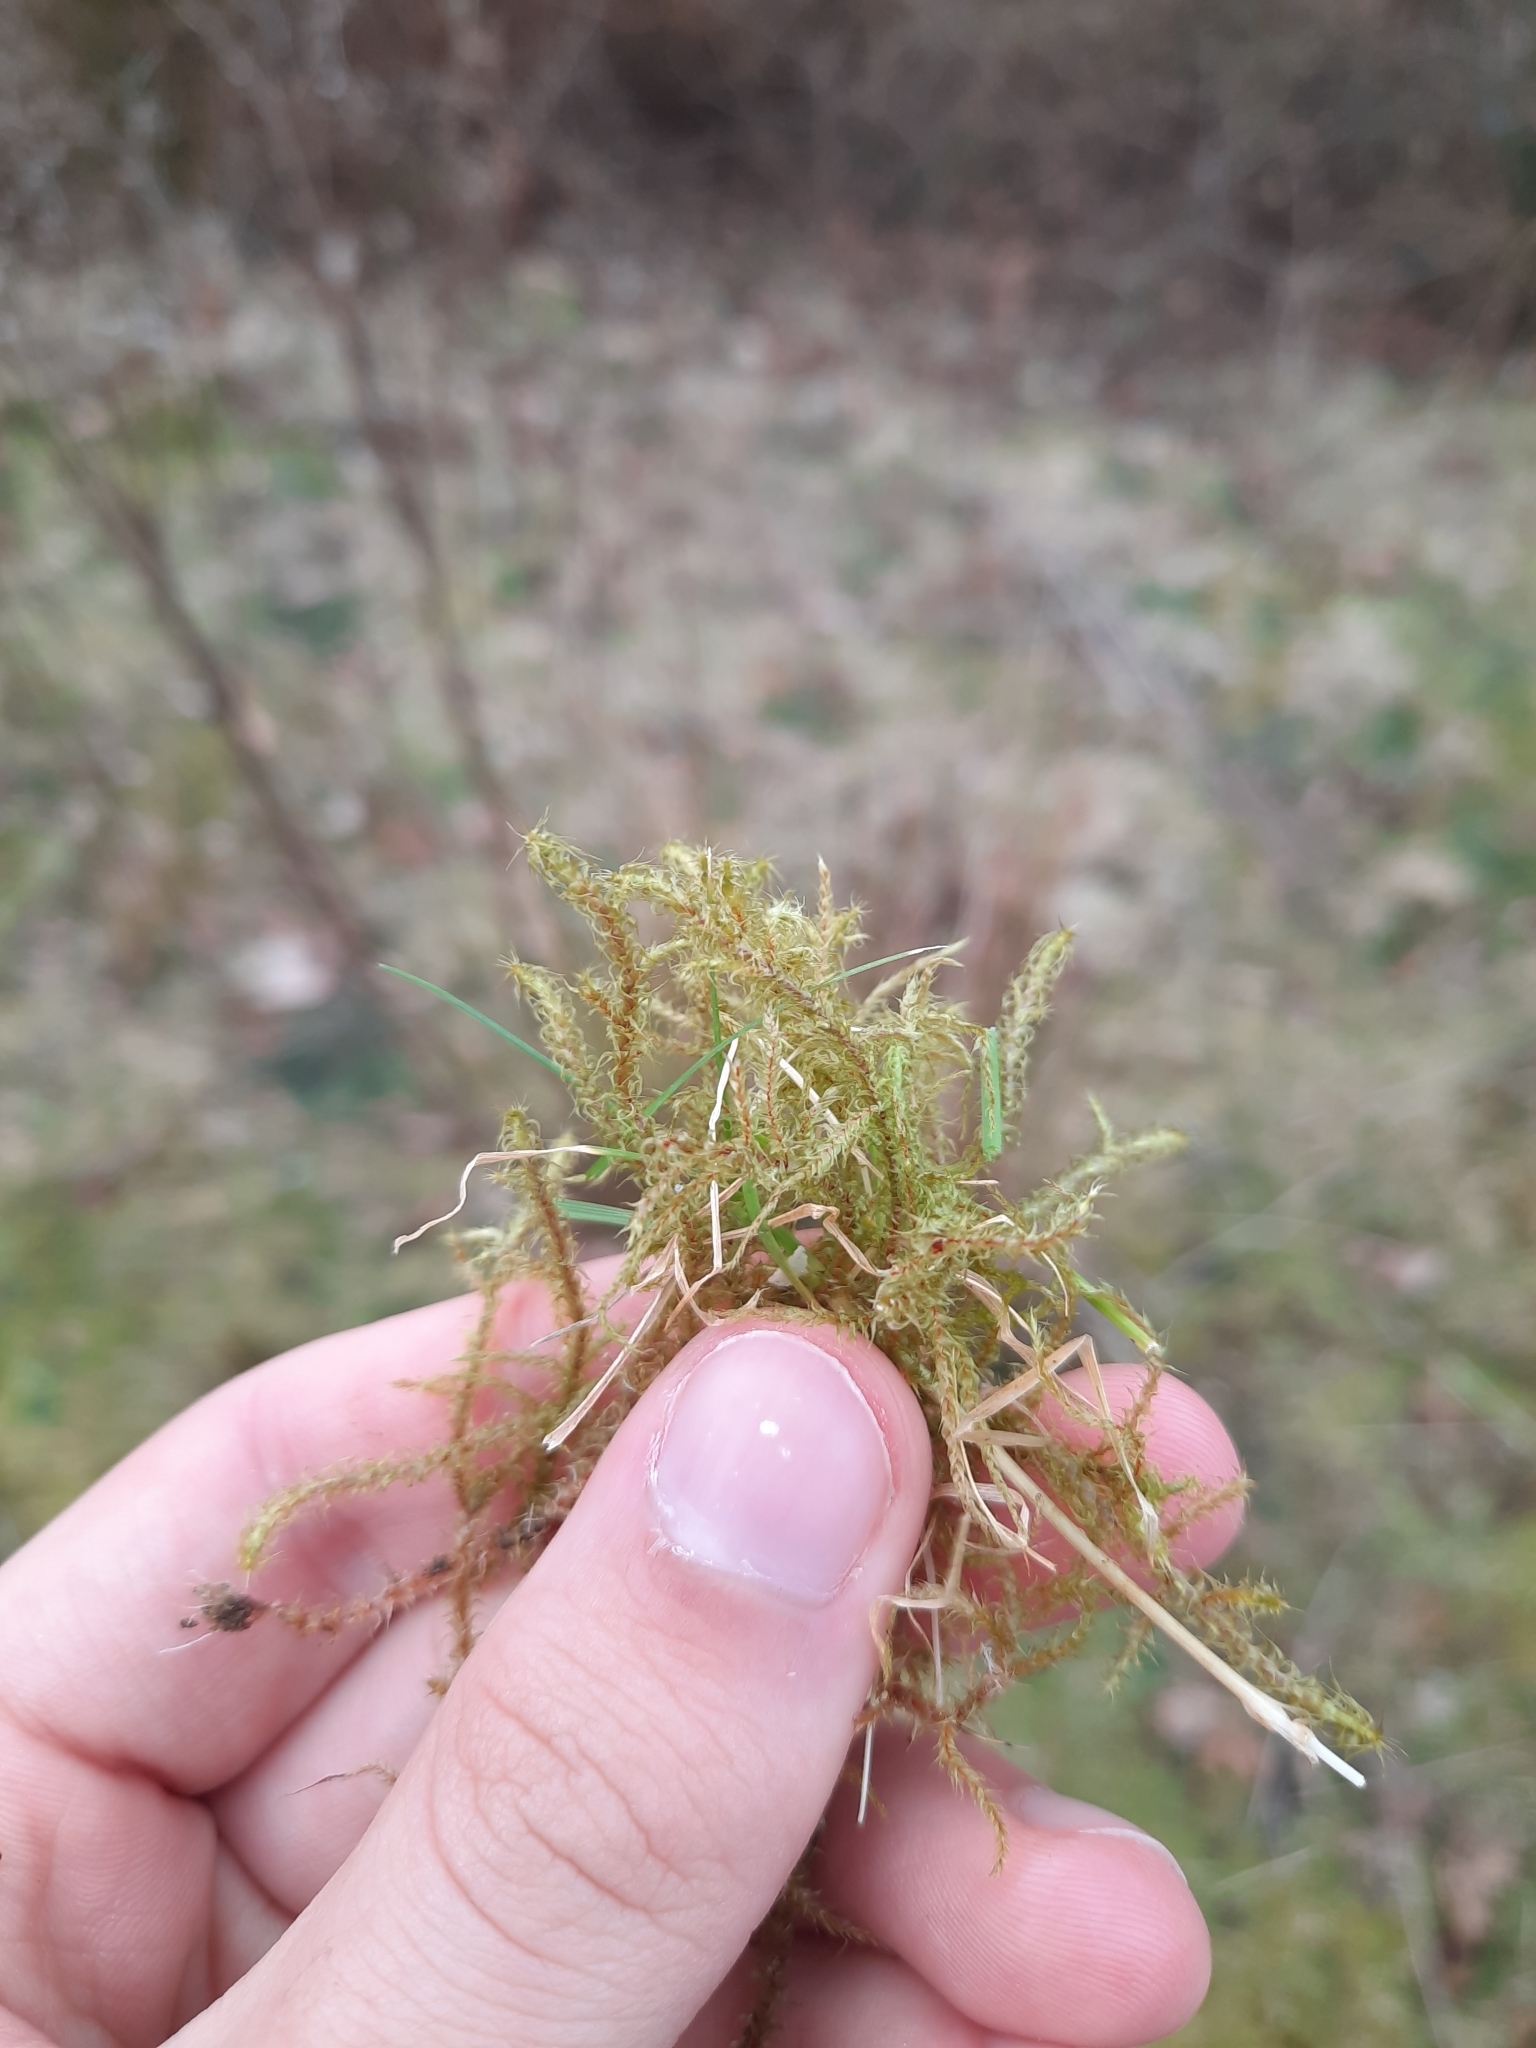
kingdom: Plantae
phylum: Bryophyta
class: Bryopsida
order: Hypnales
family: Hylocomiaceae
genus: Rhytidiadelphus
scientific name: Rhytidiadelphus squarrosus
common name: Springy turf-moss
